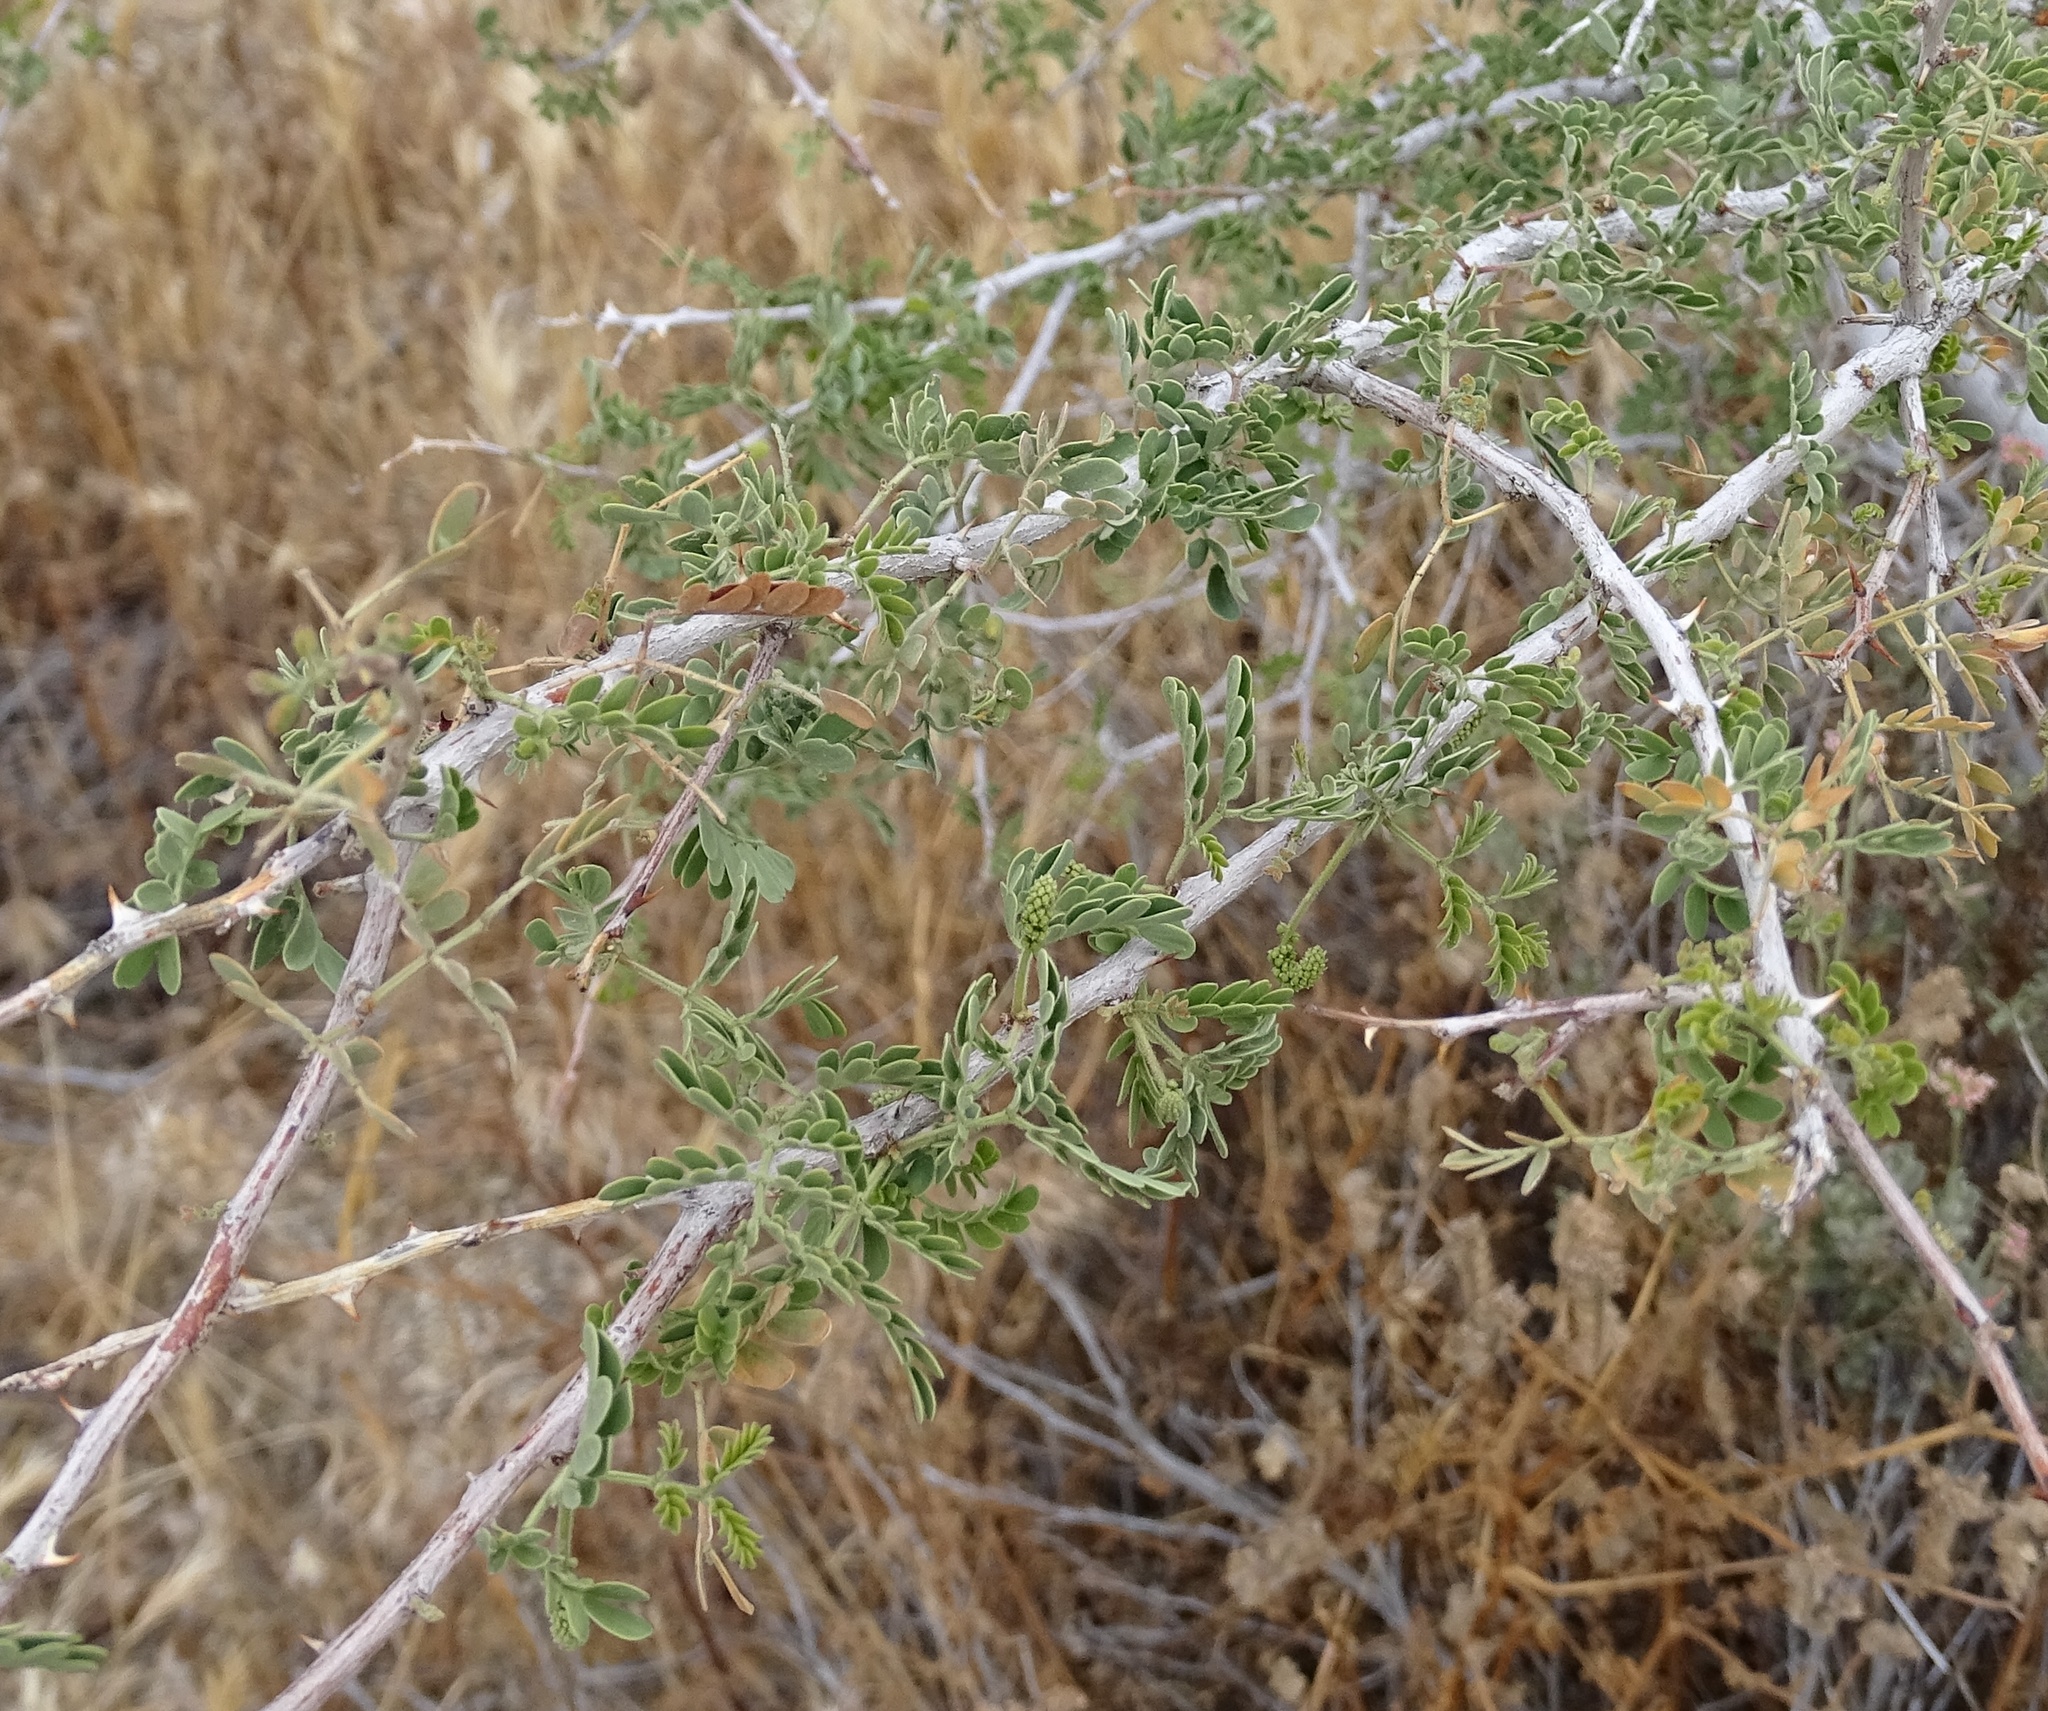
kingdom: Plantae
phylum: Tracheophyta
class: Magnoliopsida
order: Fabales
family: Fabaceae
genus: Senegalia
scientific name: Senegalia greggii
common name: Texas-mimosa
